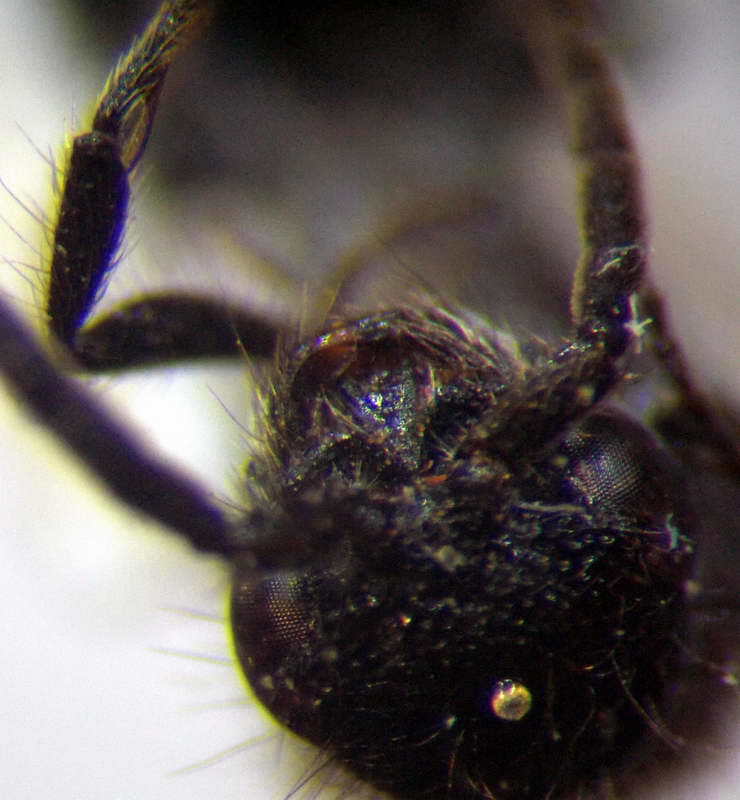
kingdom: Animalia
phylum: Arthropoda
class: Insecta
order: Hymenoptera
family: Mutillidae
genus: Smicromyrme
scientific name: Smicromyrme rufipes
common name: Small velvet ant
